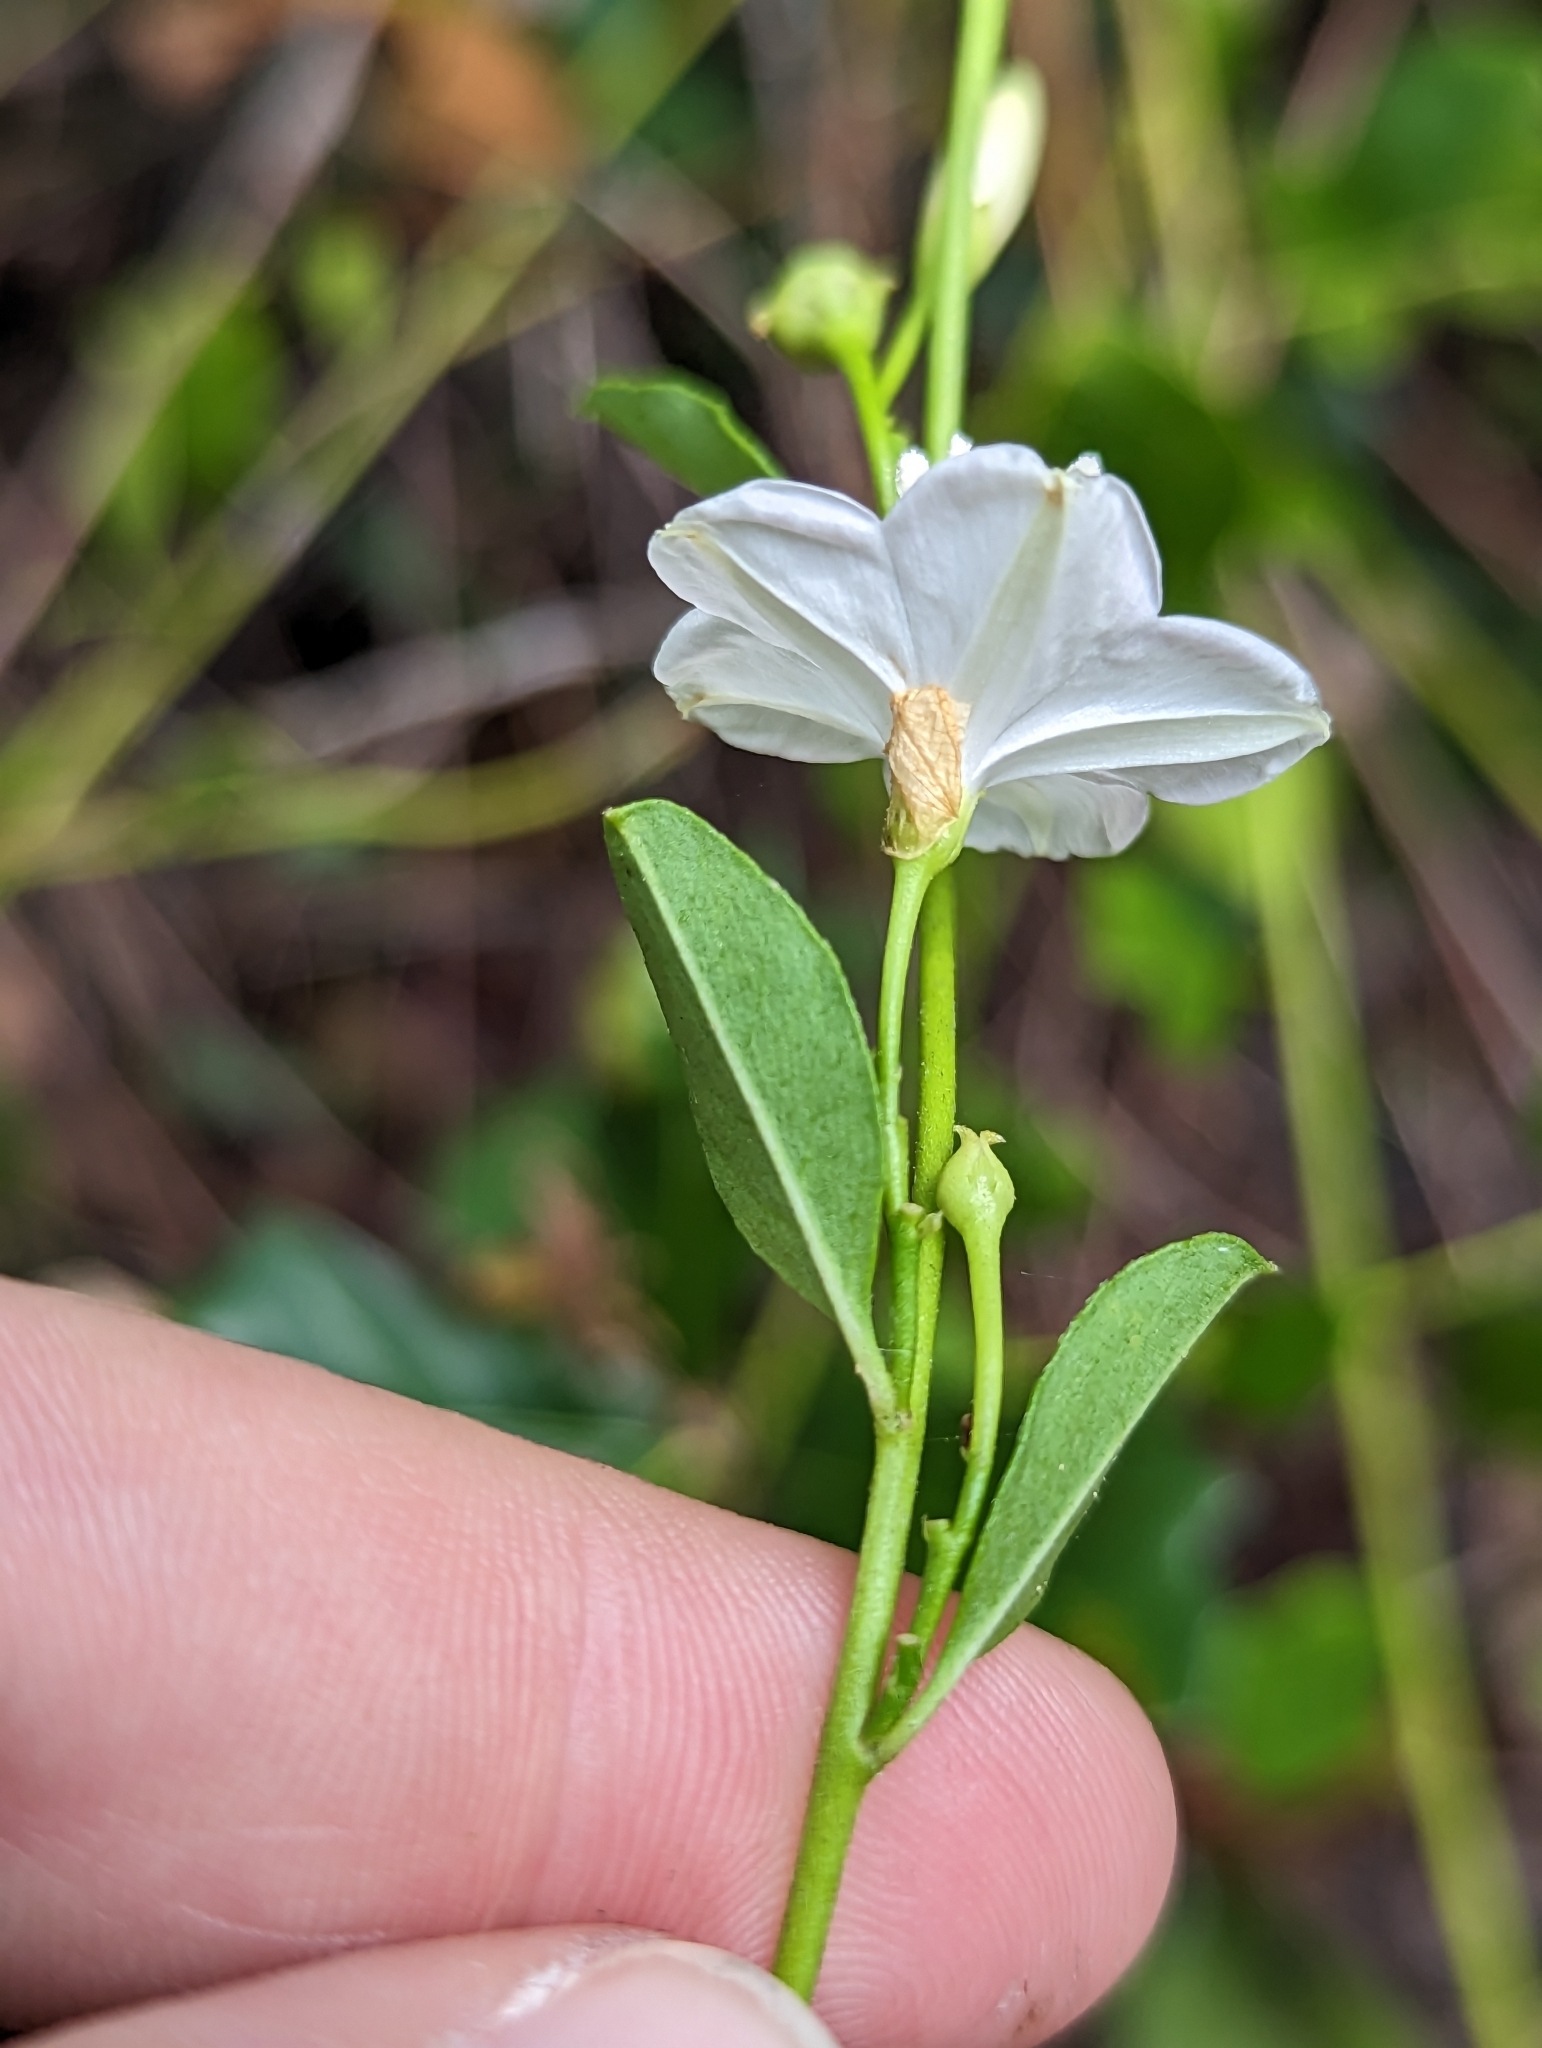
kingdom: Plantae
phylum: Tracheophyta
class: Magnoliopsida
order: Solanales
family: Convolvulaceae
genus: Jacquemontia
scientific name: Jacquemontia curtissii
